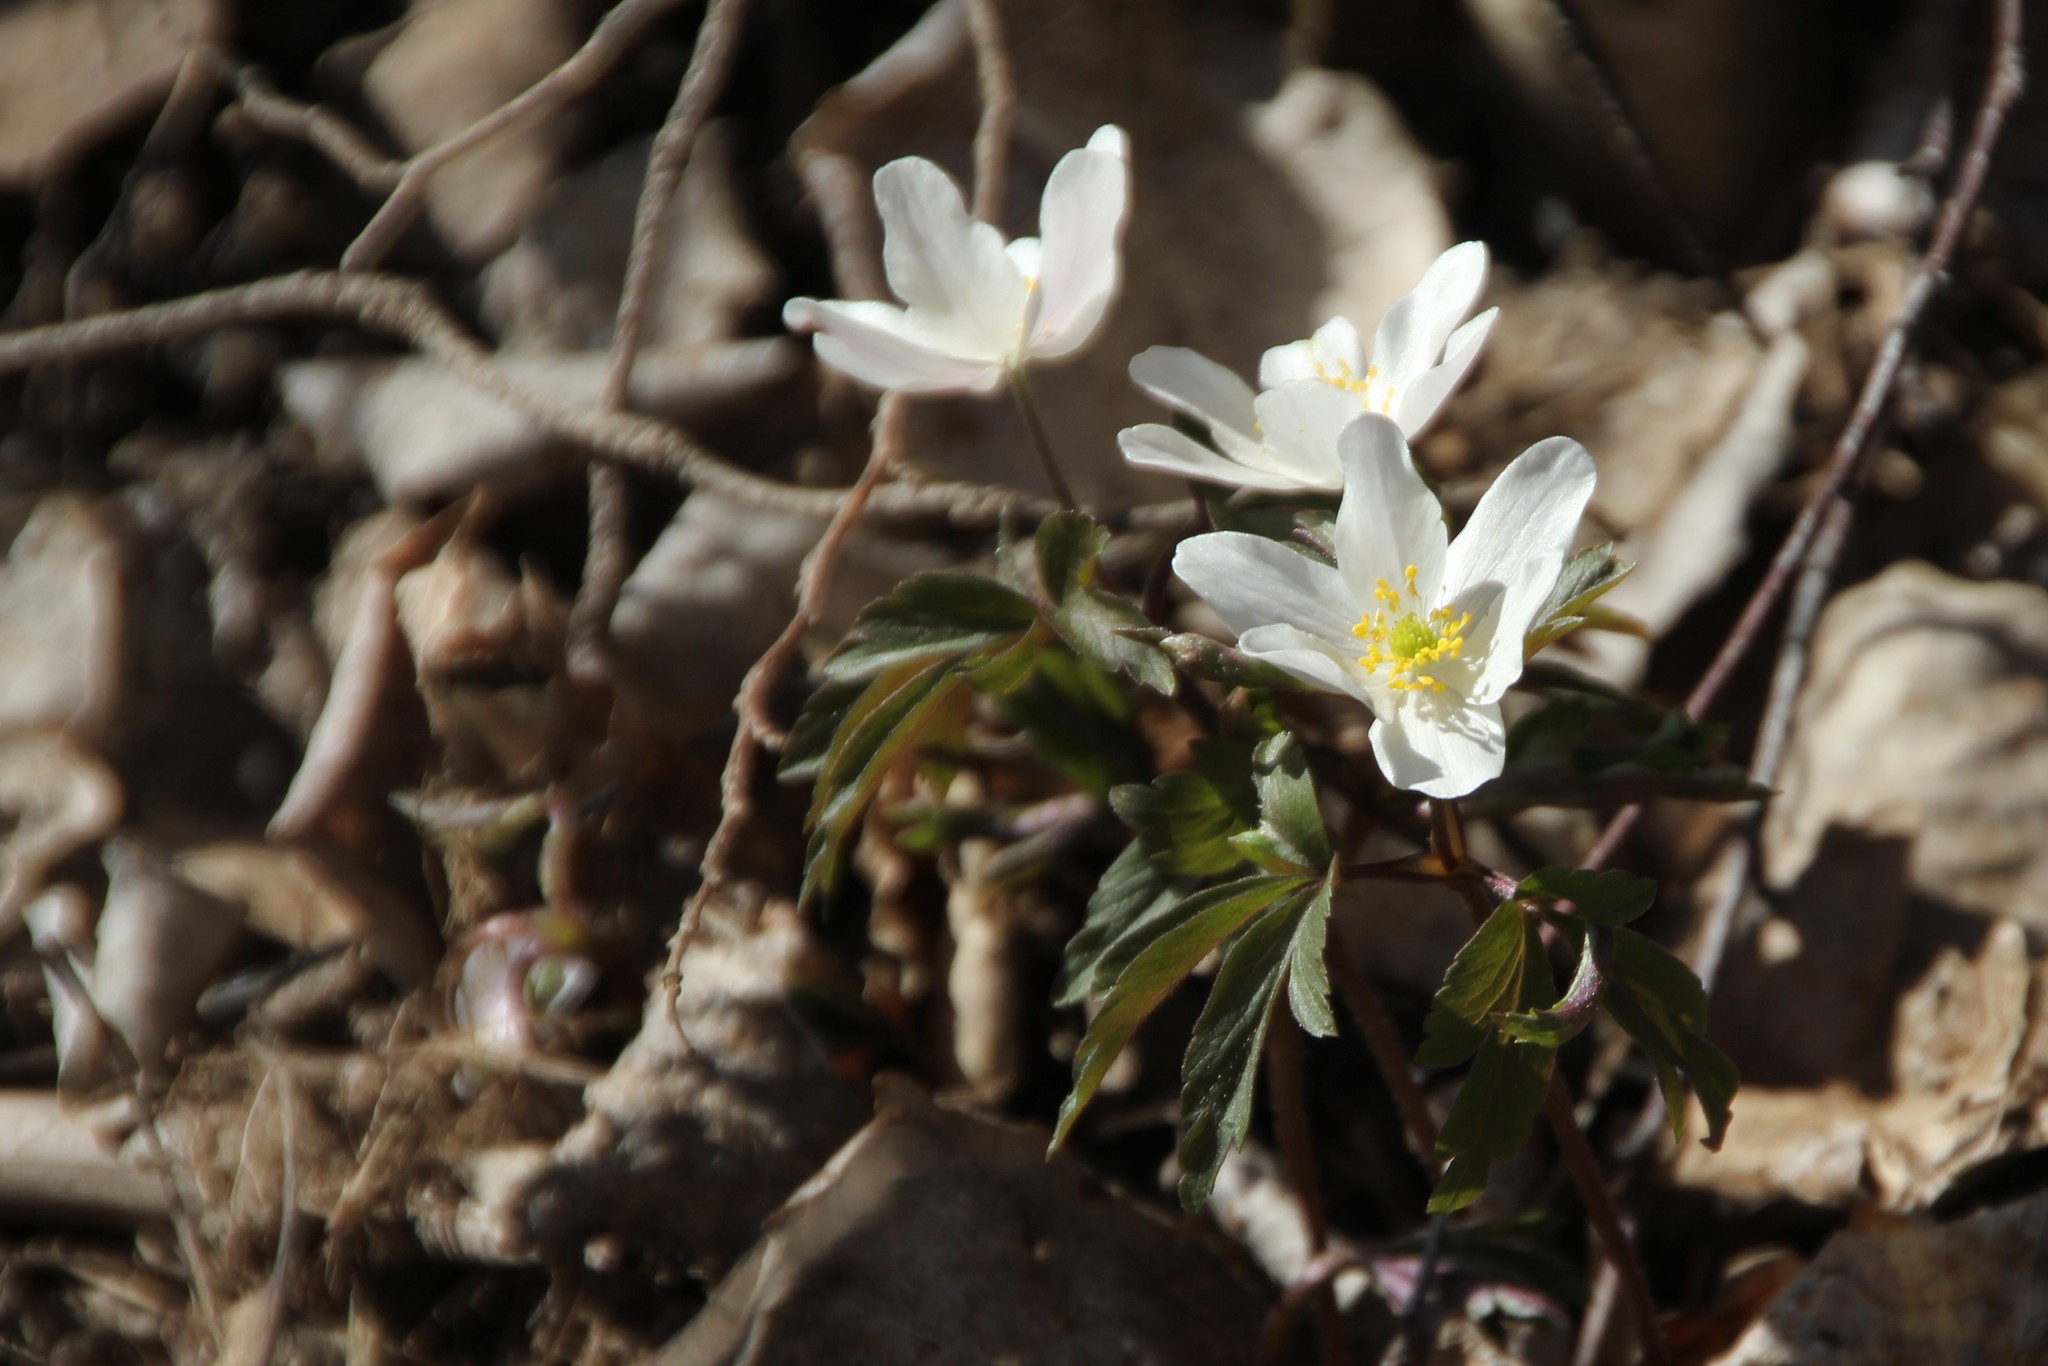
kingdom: Plantae
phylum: Tracheophyta
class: Magnoliopsida
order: Ranunculales
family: Ranunculaceae
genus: Anemone
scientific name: Anemone nemorosa
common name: Wood anemone
